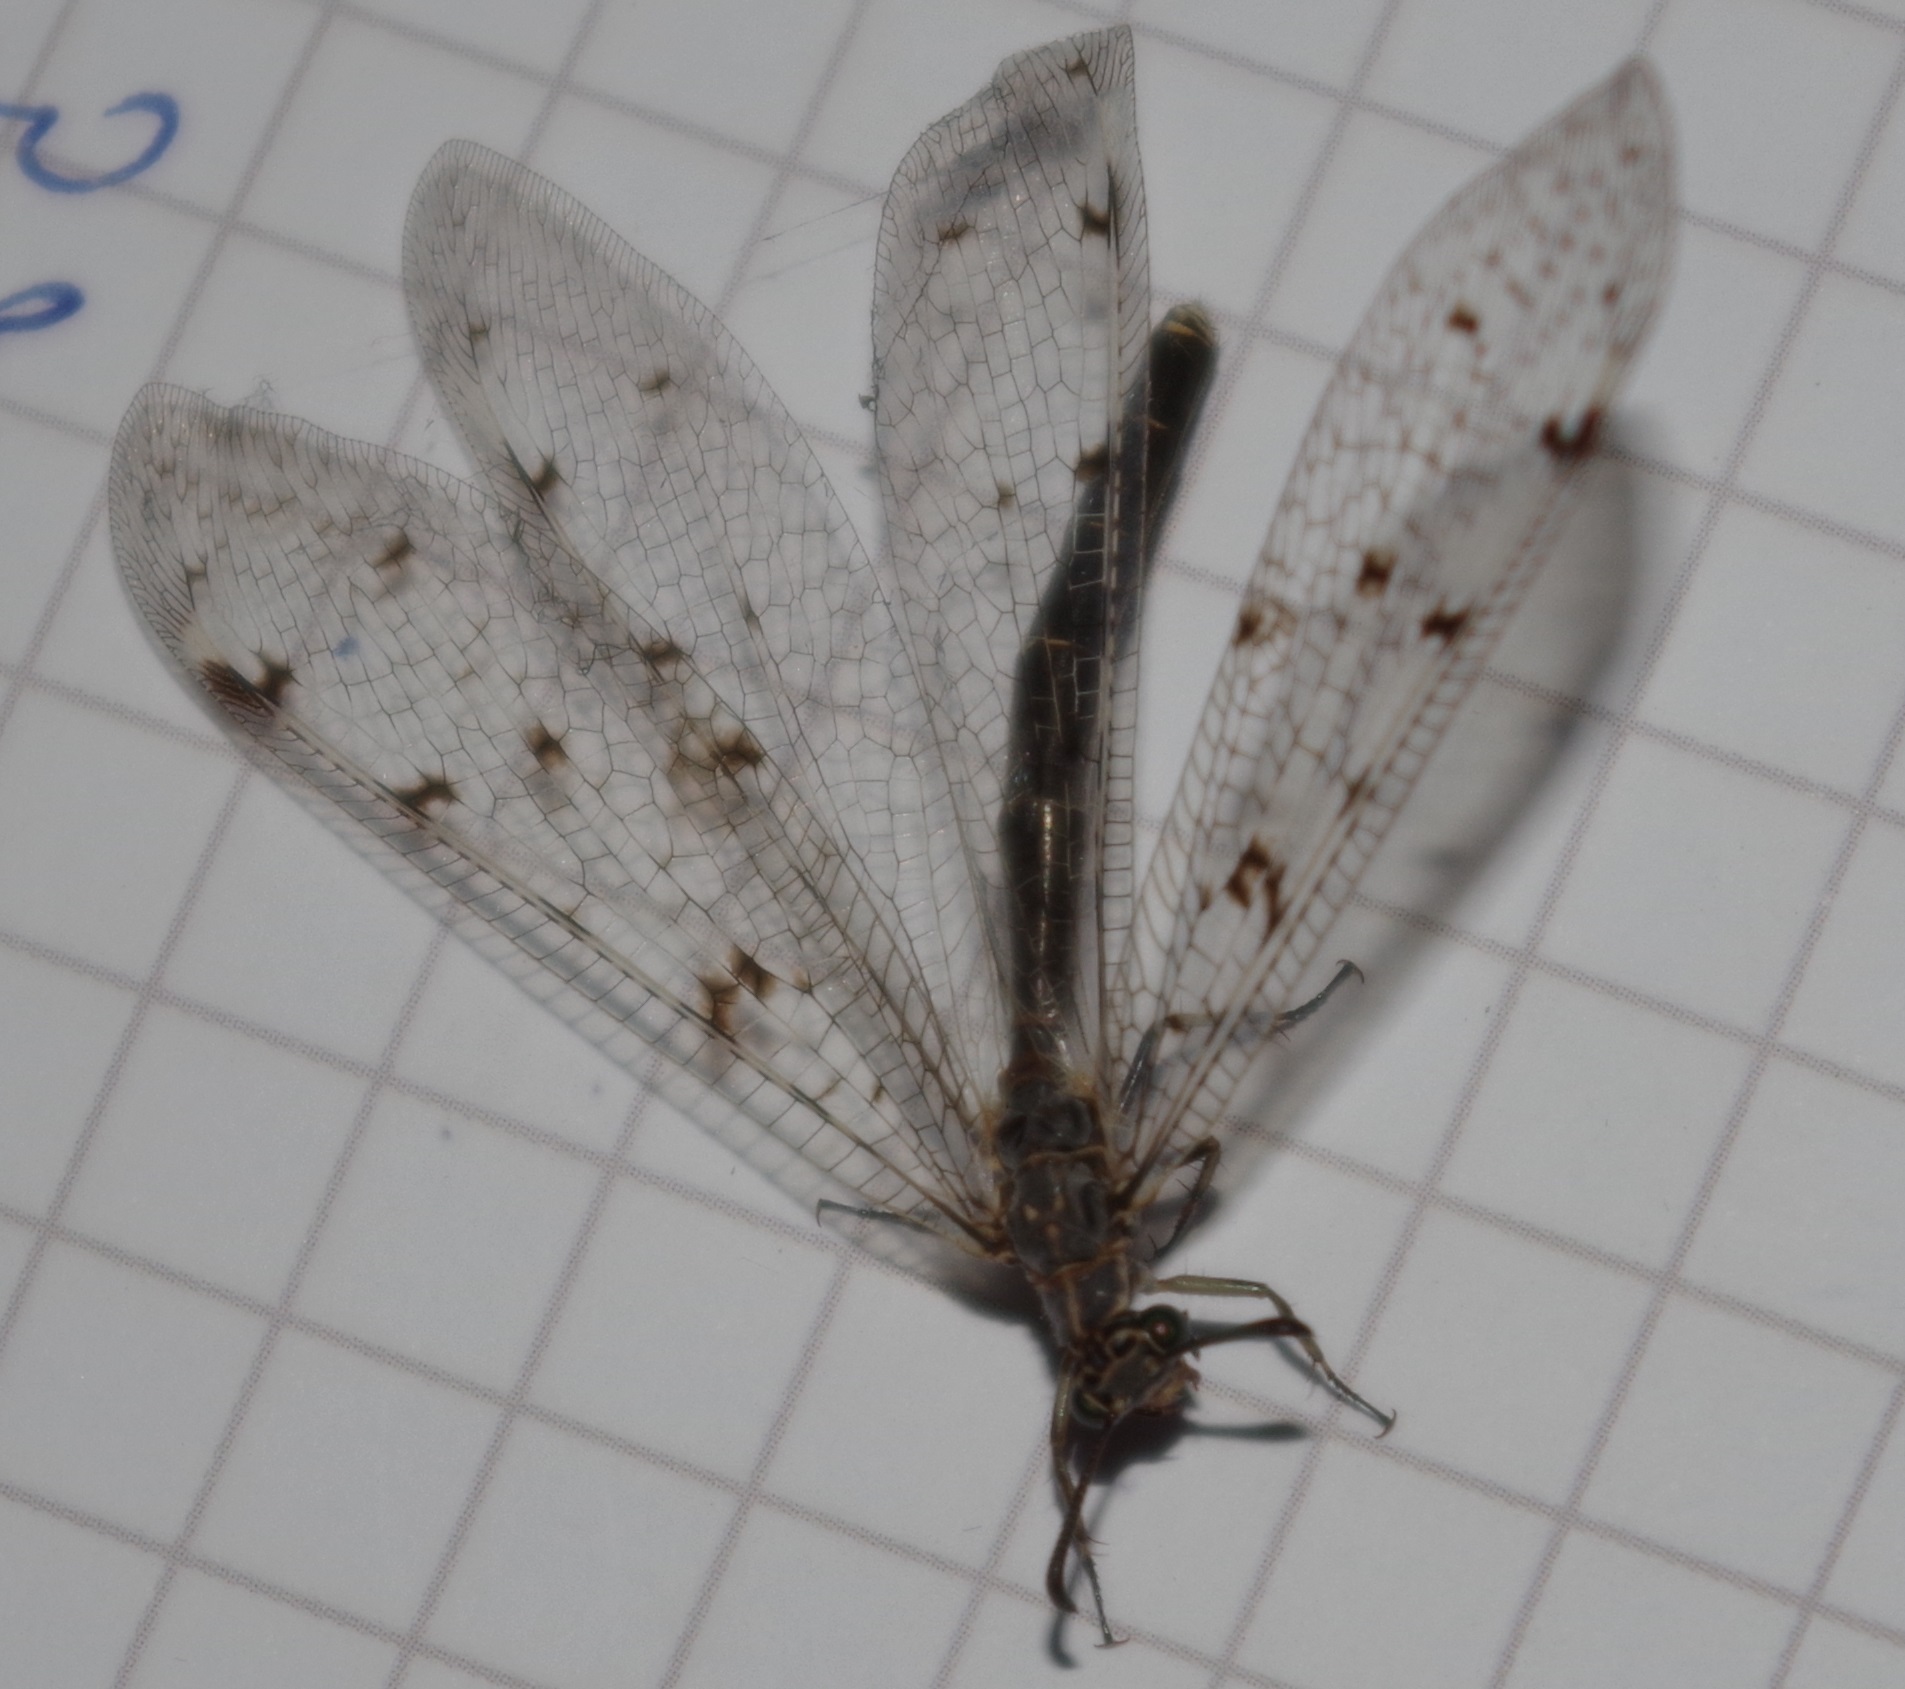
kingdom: Animalia
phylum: Arthropoda
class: Insecta
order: Neuroptera
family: Myrmeleontidae
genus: Euroleon
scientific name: Euroleon nostras
